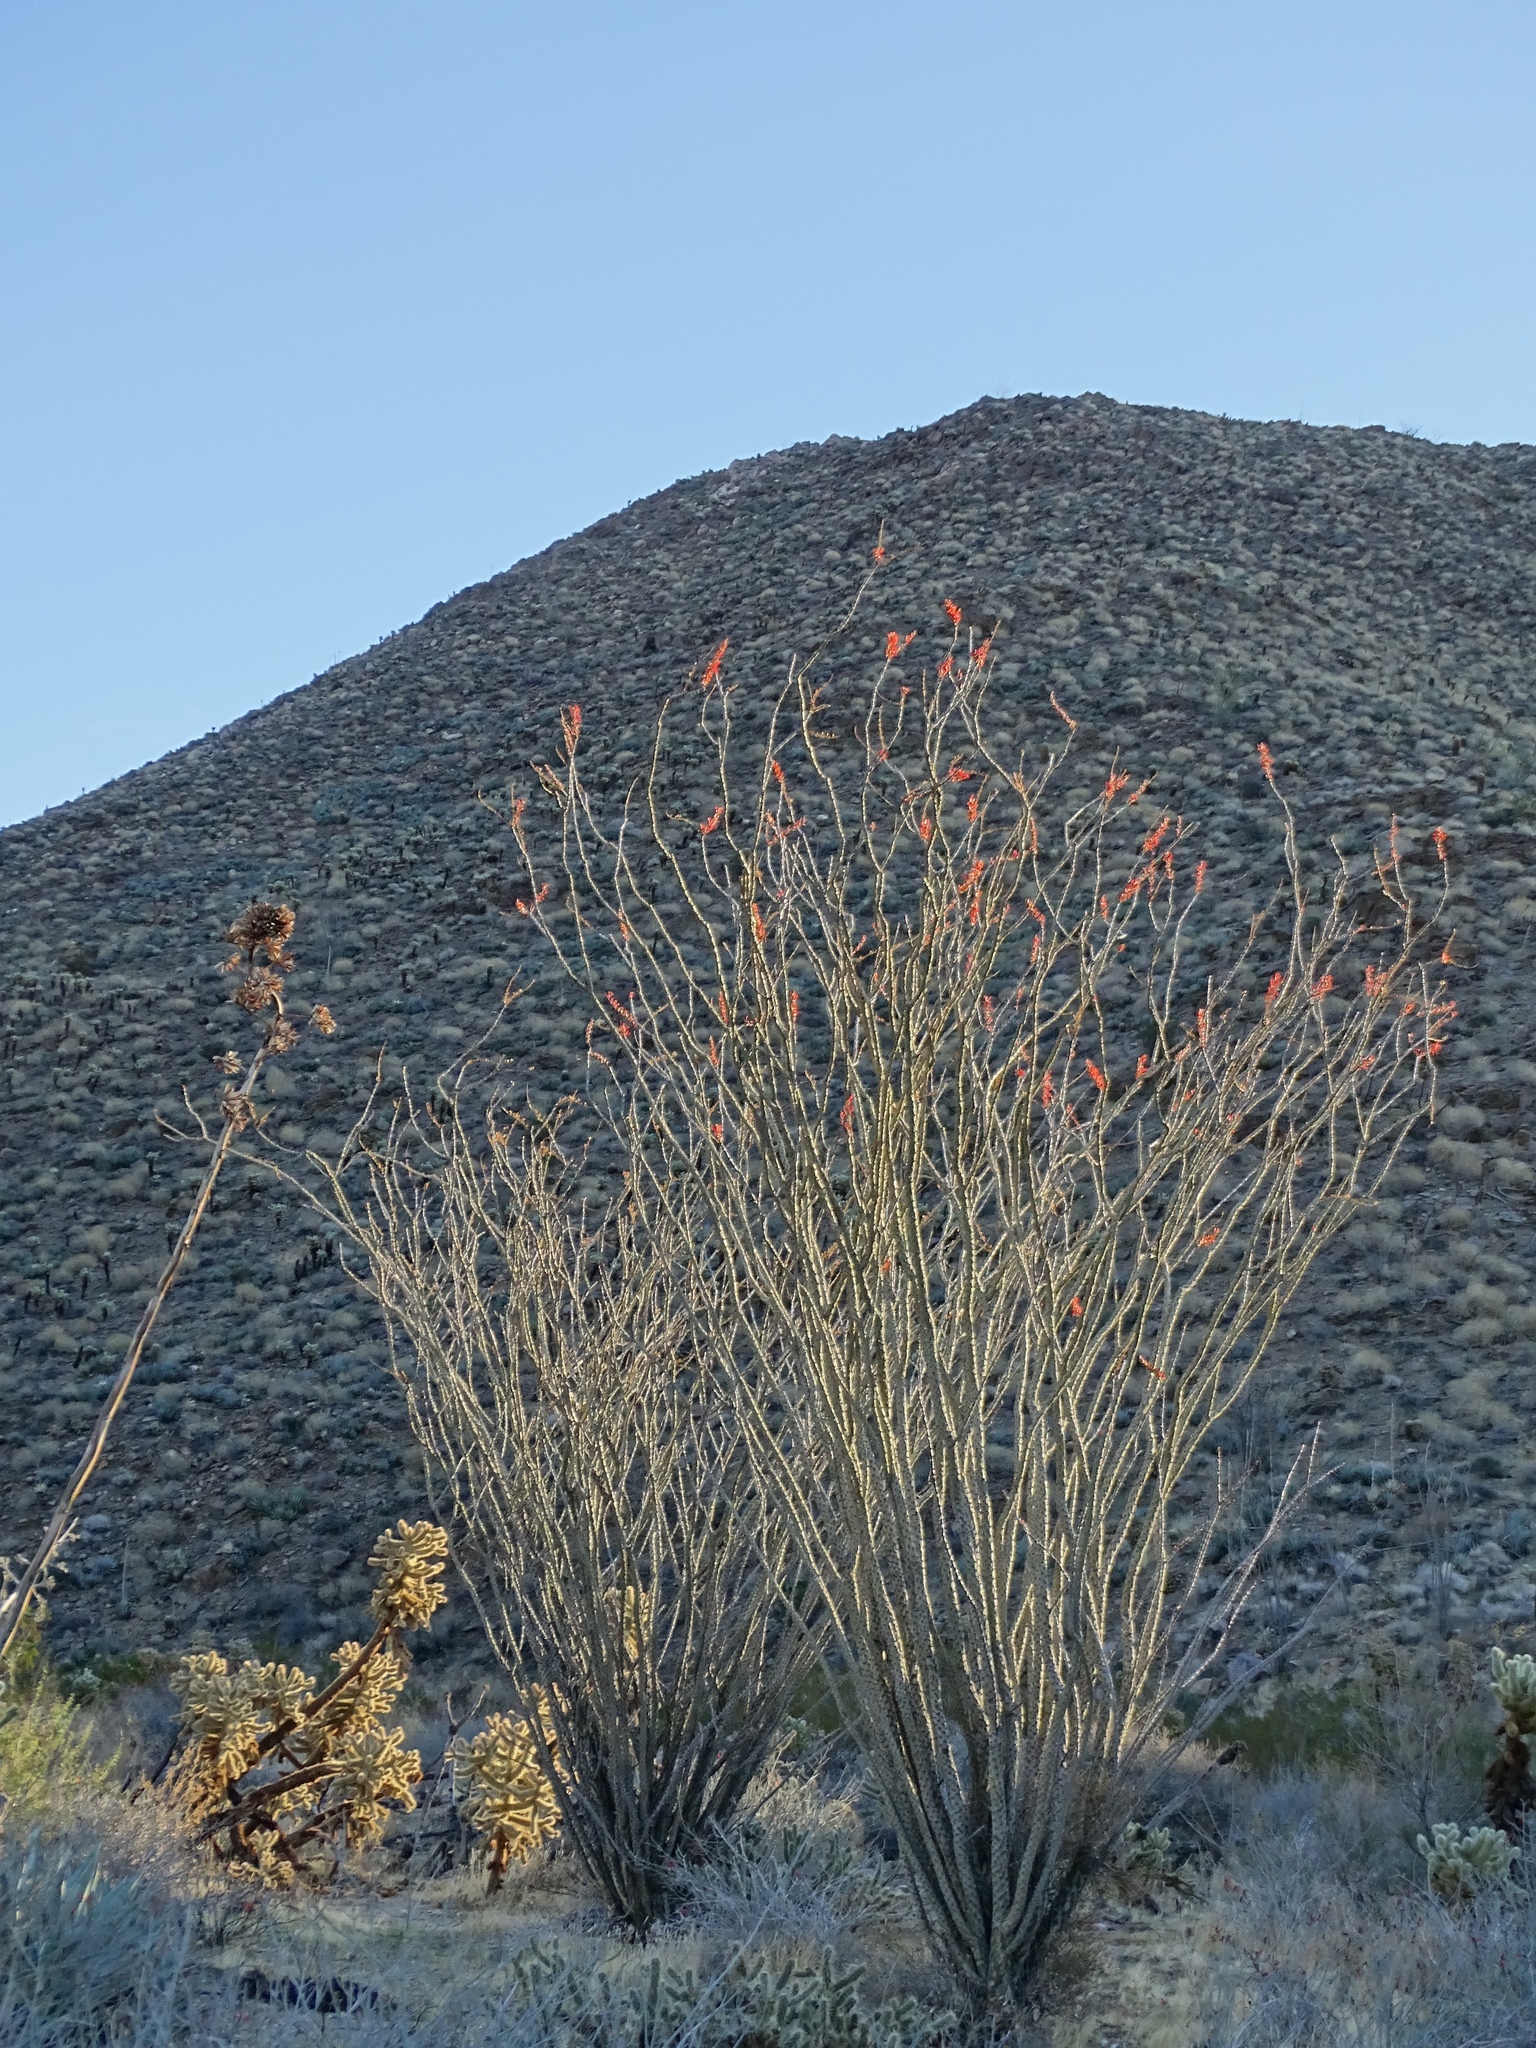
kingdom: Plantae
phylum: Tracheophyta
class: Magnoliopsida
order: Ericales
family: Fouquieriaceae
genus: Fouquieria
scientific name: Fouquieria splendens
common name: Vine-cactus
